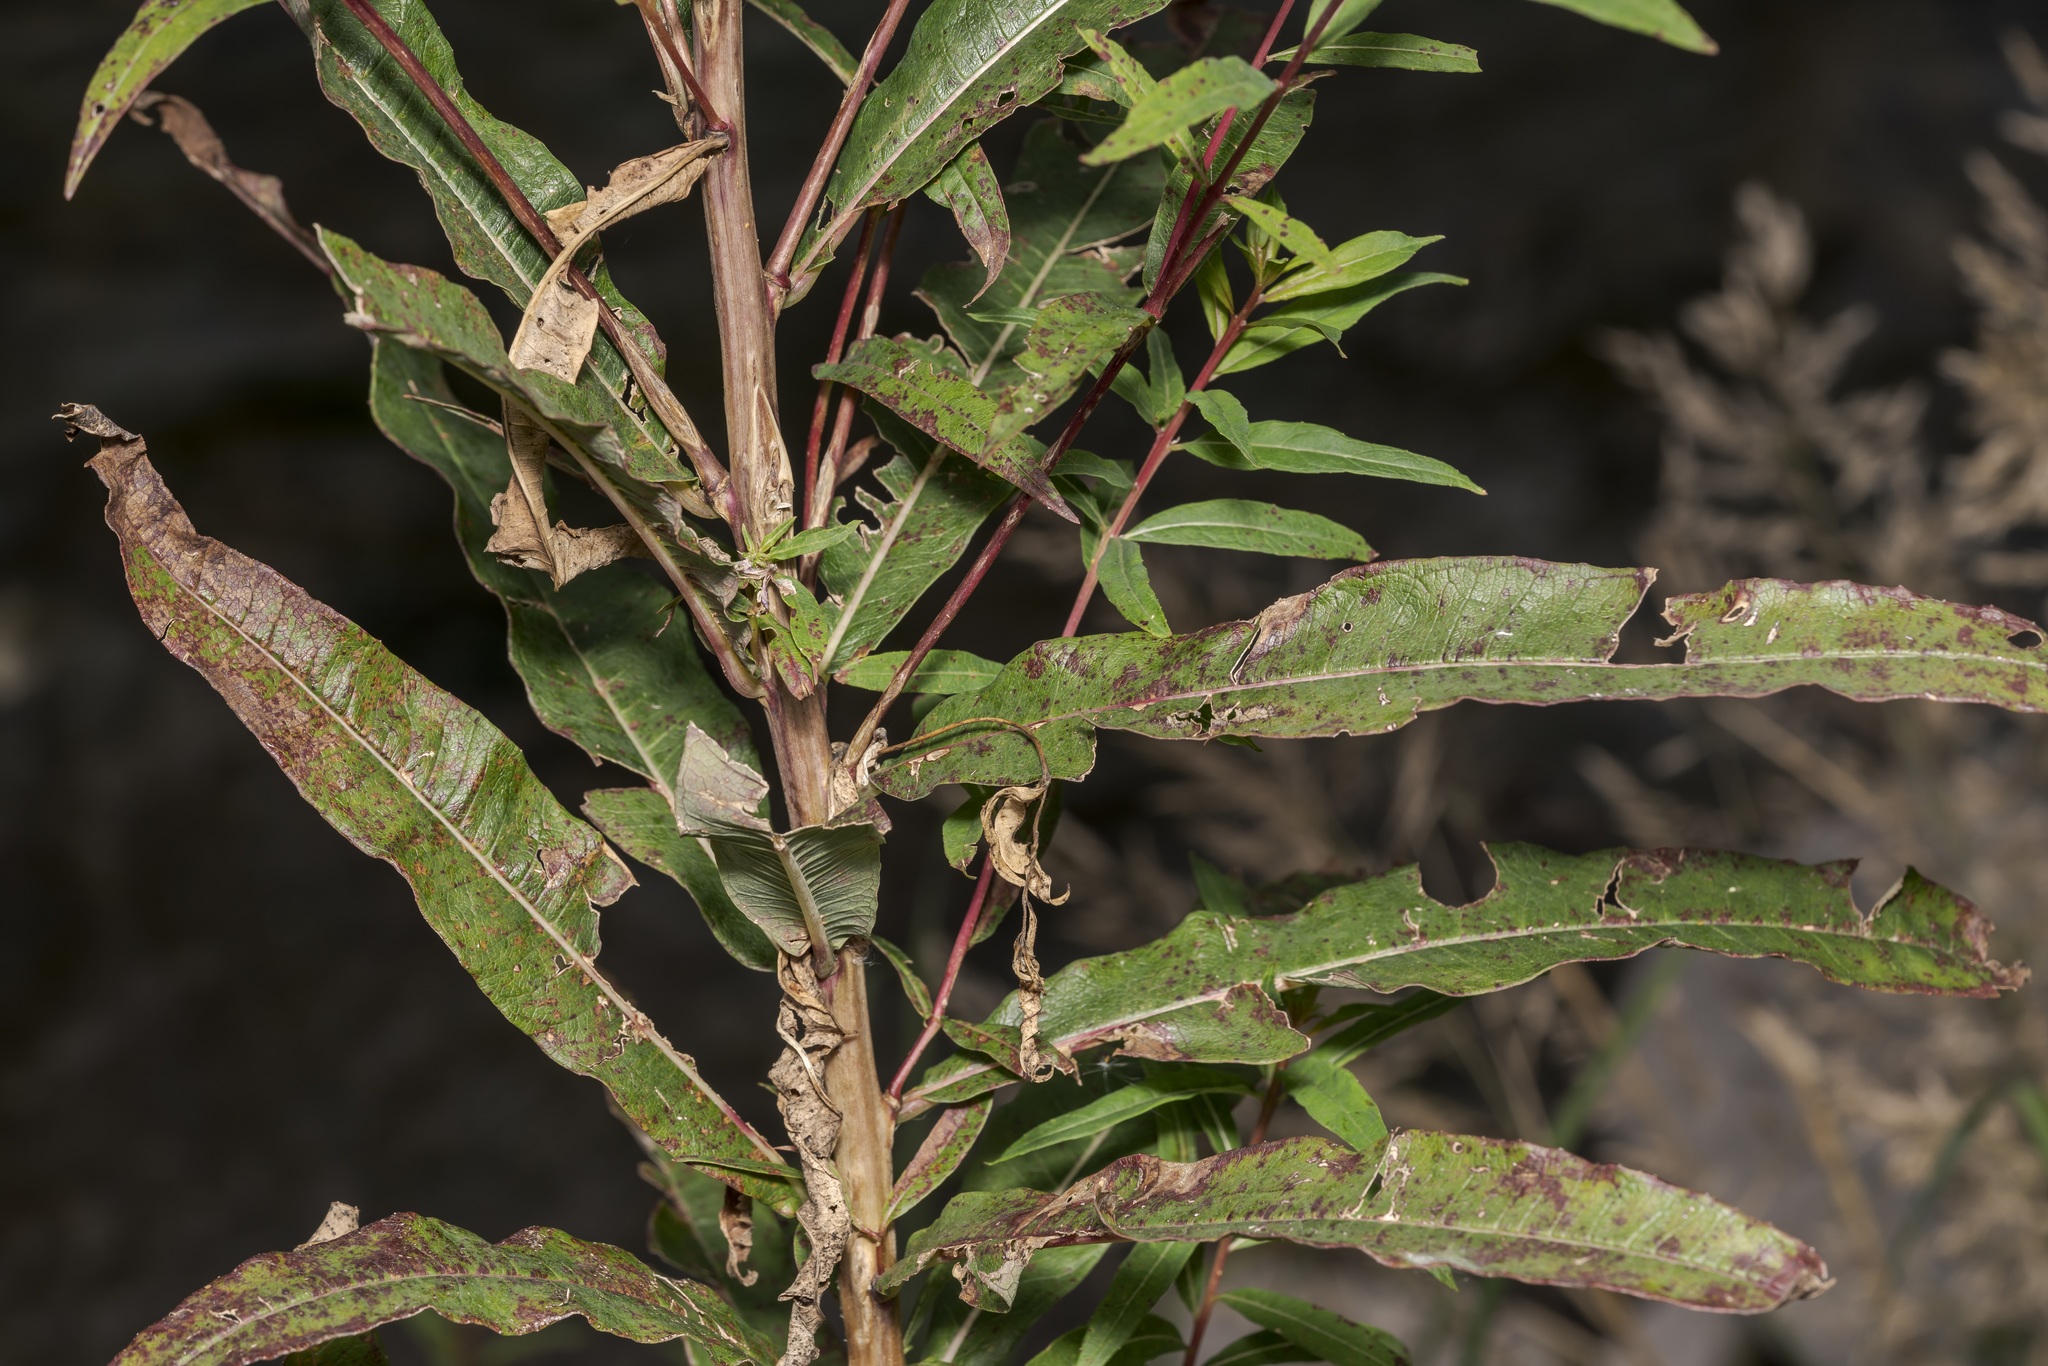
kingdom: Plantae
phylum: Tracheophyta
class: Magnoliopsida
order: Myrtales
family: Onagraceae
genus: Chamaenerion
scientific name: Chamaenerion angustifolium
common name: Fireweed
